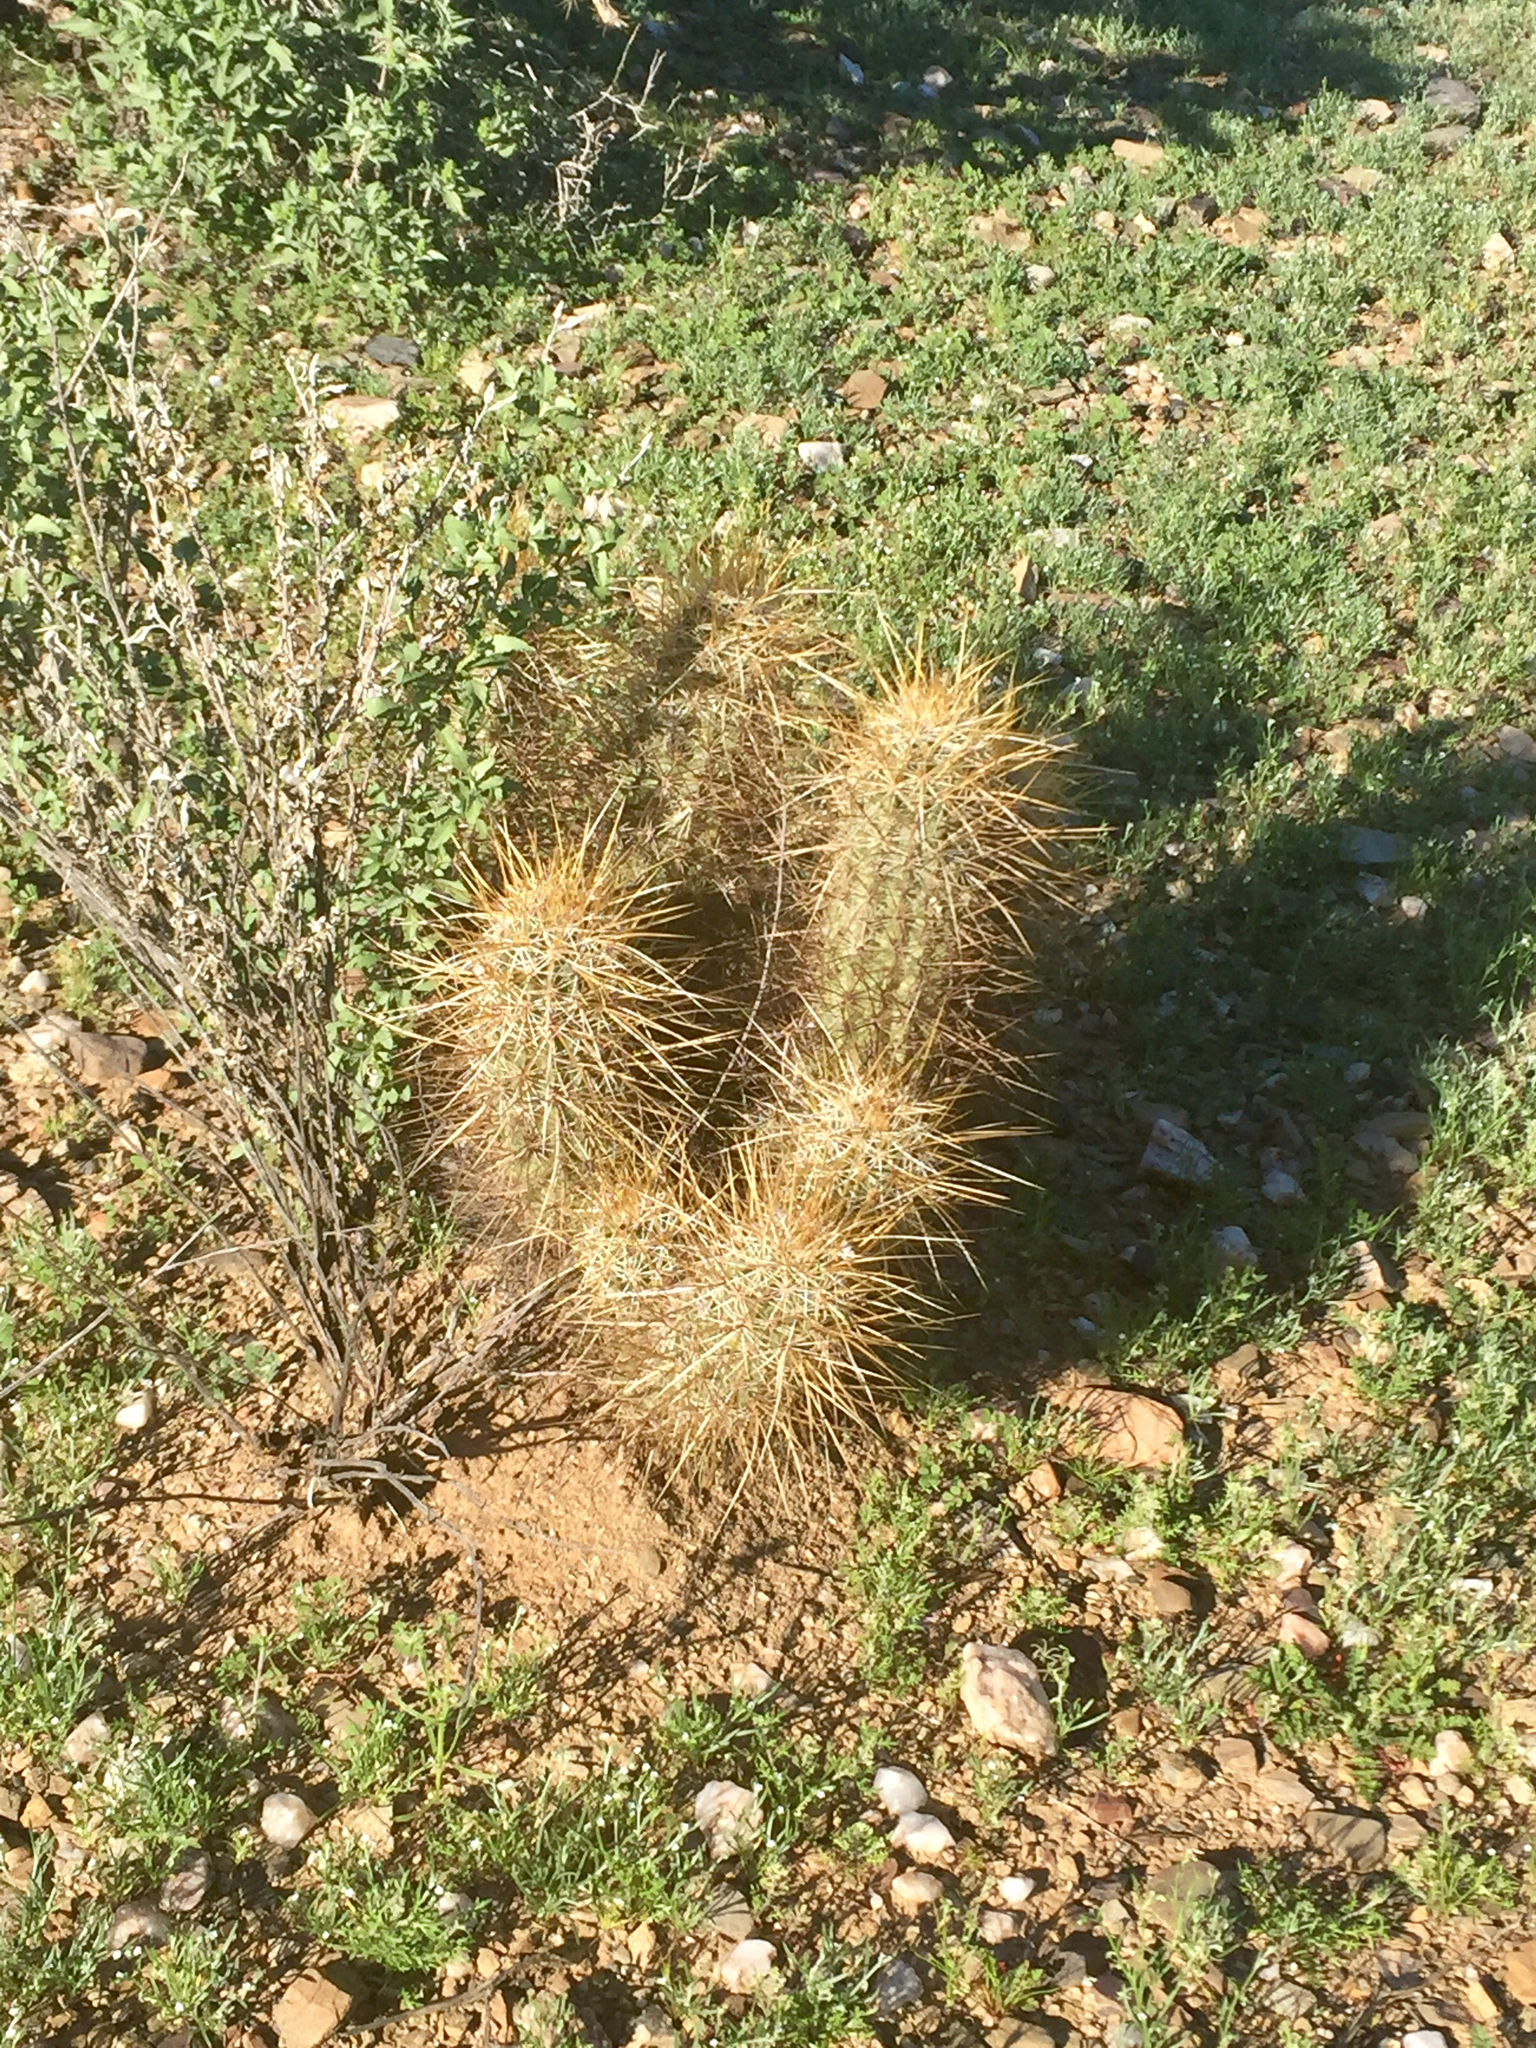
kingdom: Plantae
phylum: Tracheophyta
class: Magnoliopsida
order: Caryophyllales
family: Cactaceae
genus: Echinocereus
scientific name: Echinocereus engelmannii
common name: Engelmann's hedgehog cactus
